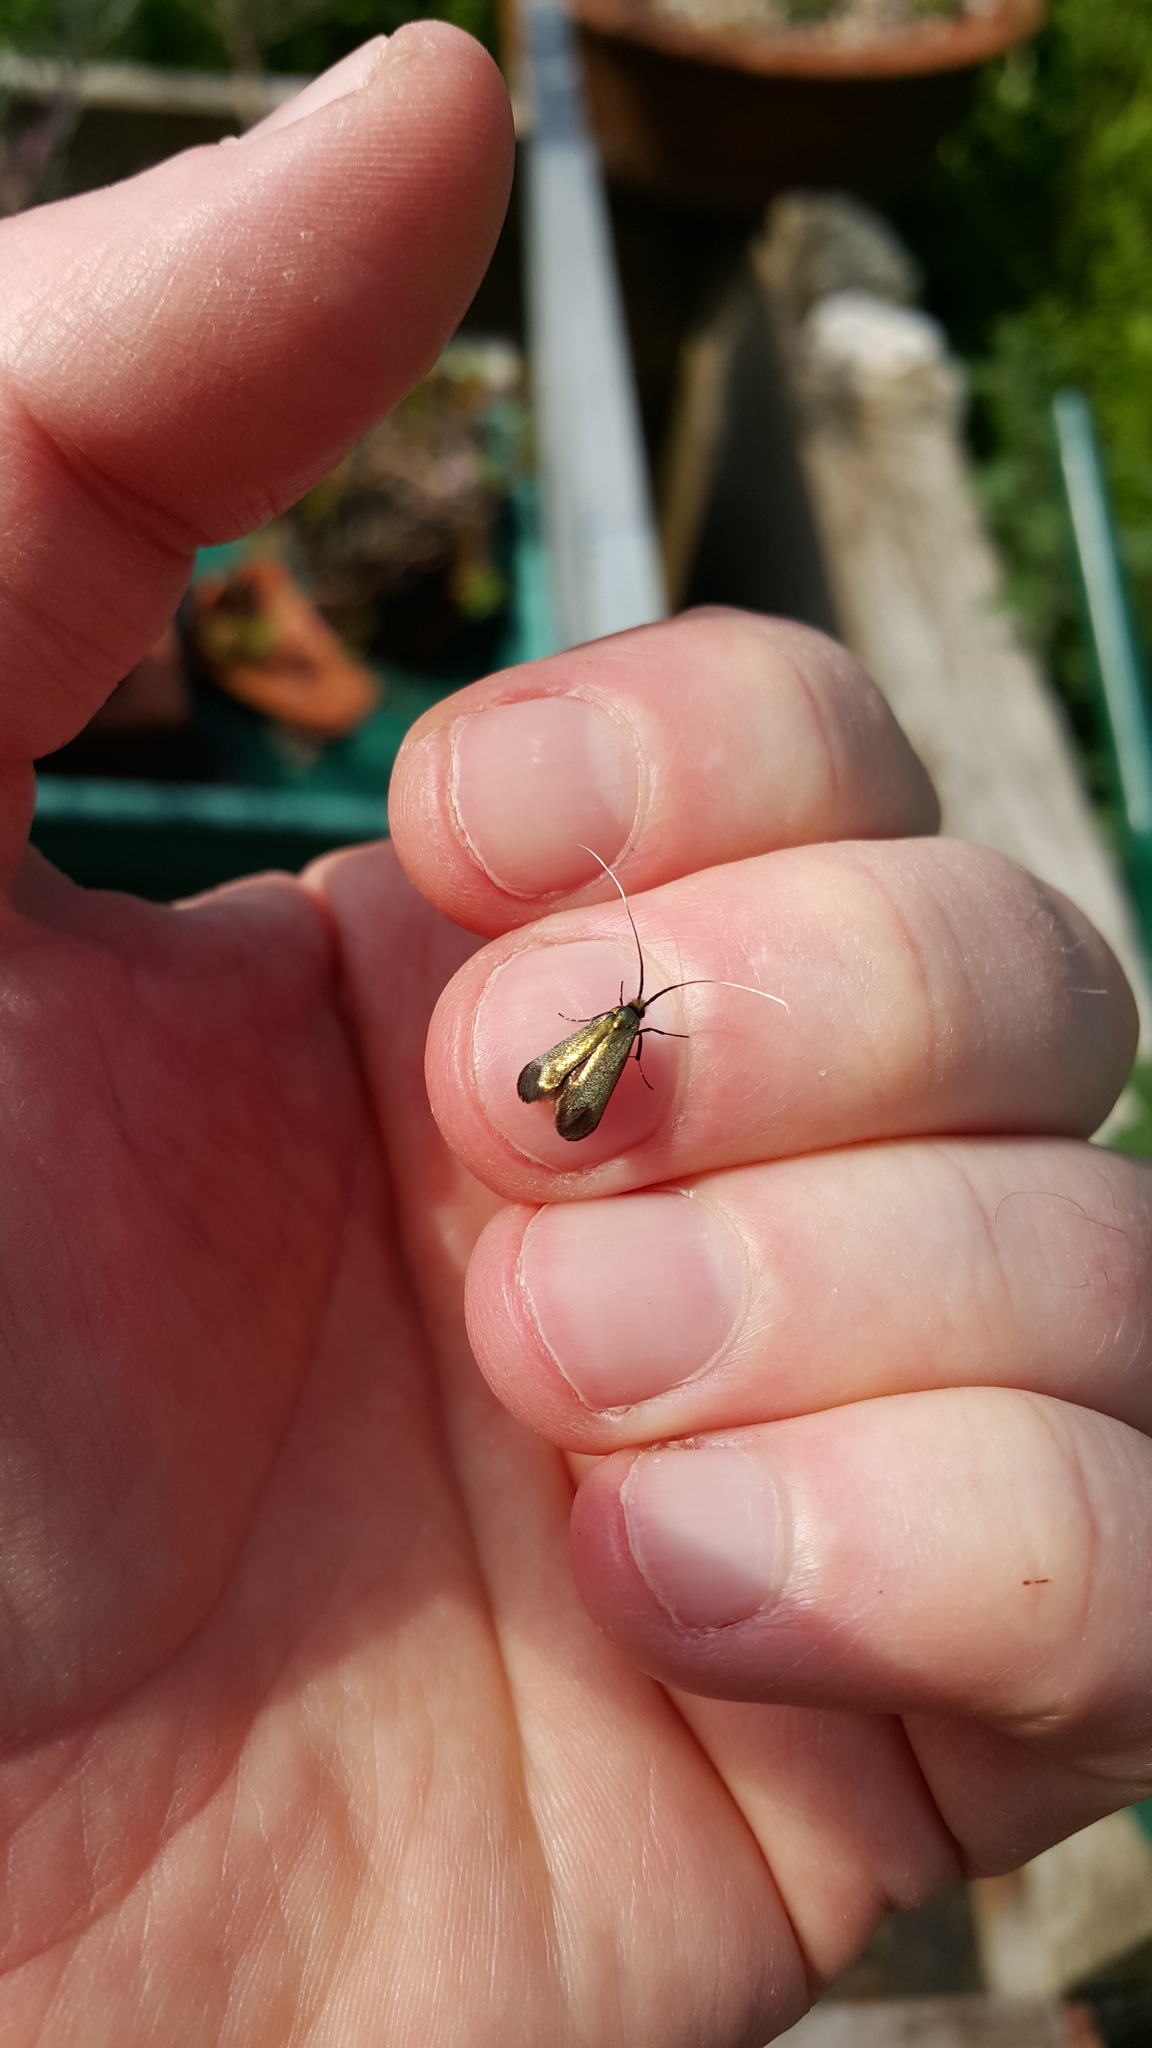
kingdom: Animalia
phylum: Arthropoda
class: Insecta
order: Lepidoptera
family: Adelidae
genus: Adela
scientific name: Adela viridella
